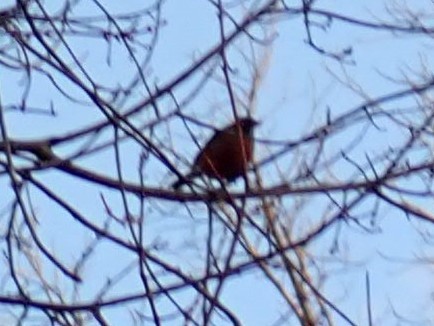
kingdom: Animalia
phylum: Chordata
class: Aves
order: Passeriformes
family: Turdidae
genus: Turdus
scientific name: Turdus migratorius
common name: American robin
